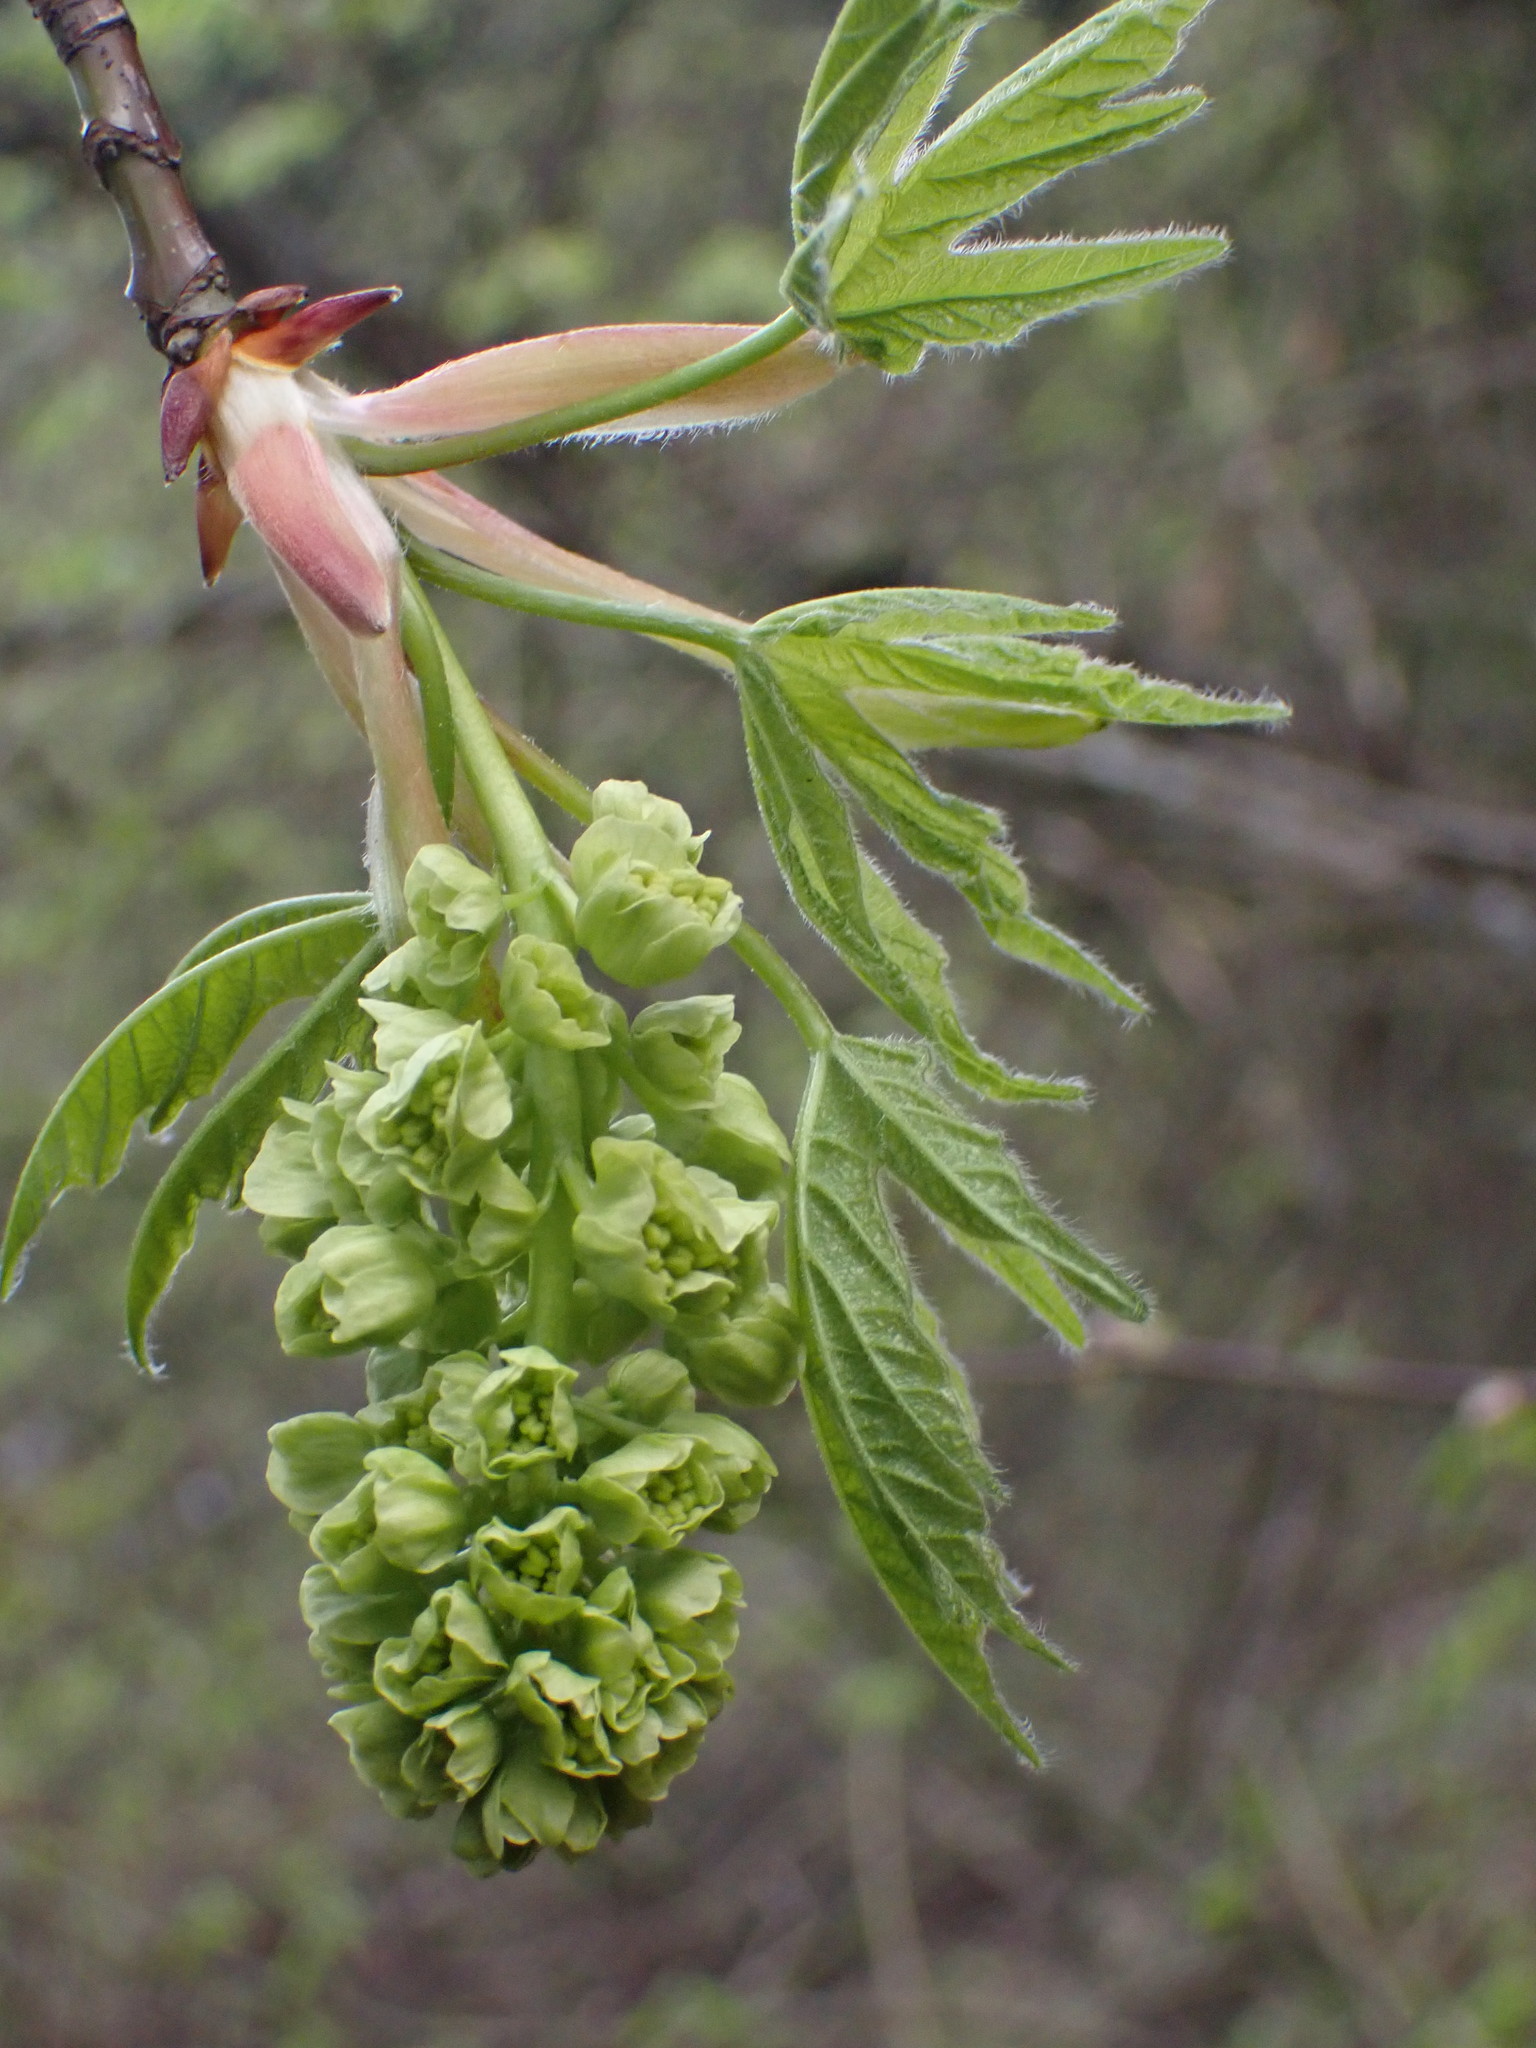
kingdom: Plantae
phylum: Tracheophyta
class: Magnoliopsida
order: Sapindales
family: Sapindaceae
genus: Acer
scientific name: Acer macrophyllum
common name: Oregon maple
